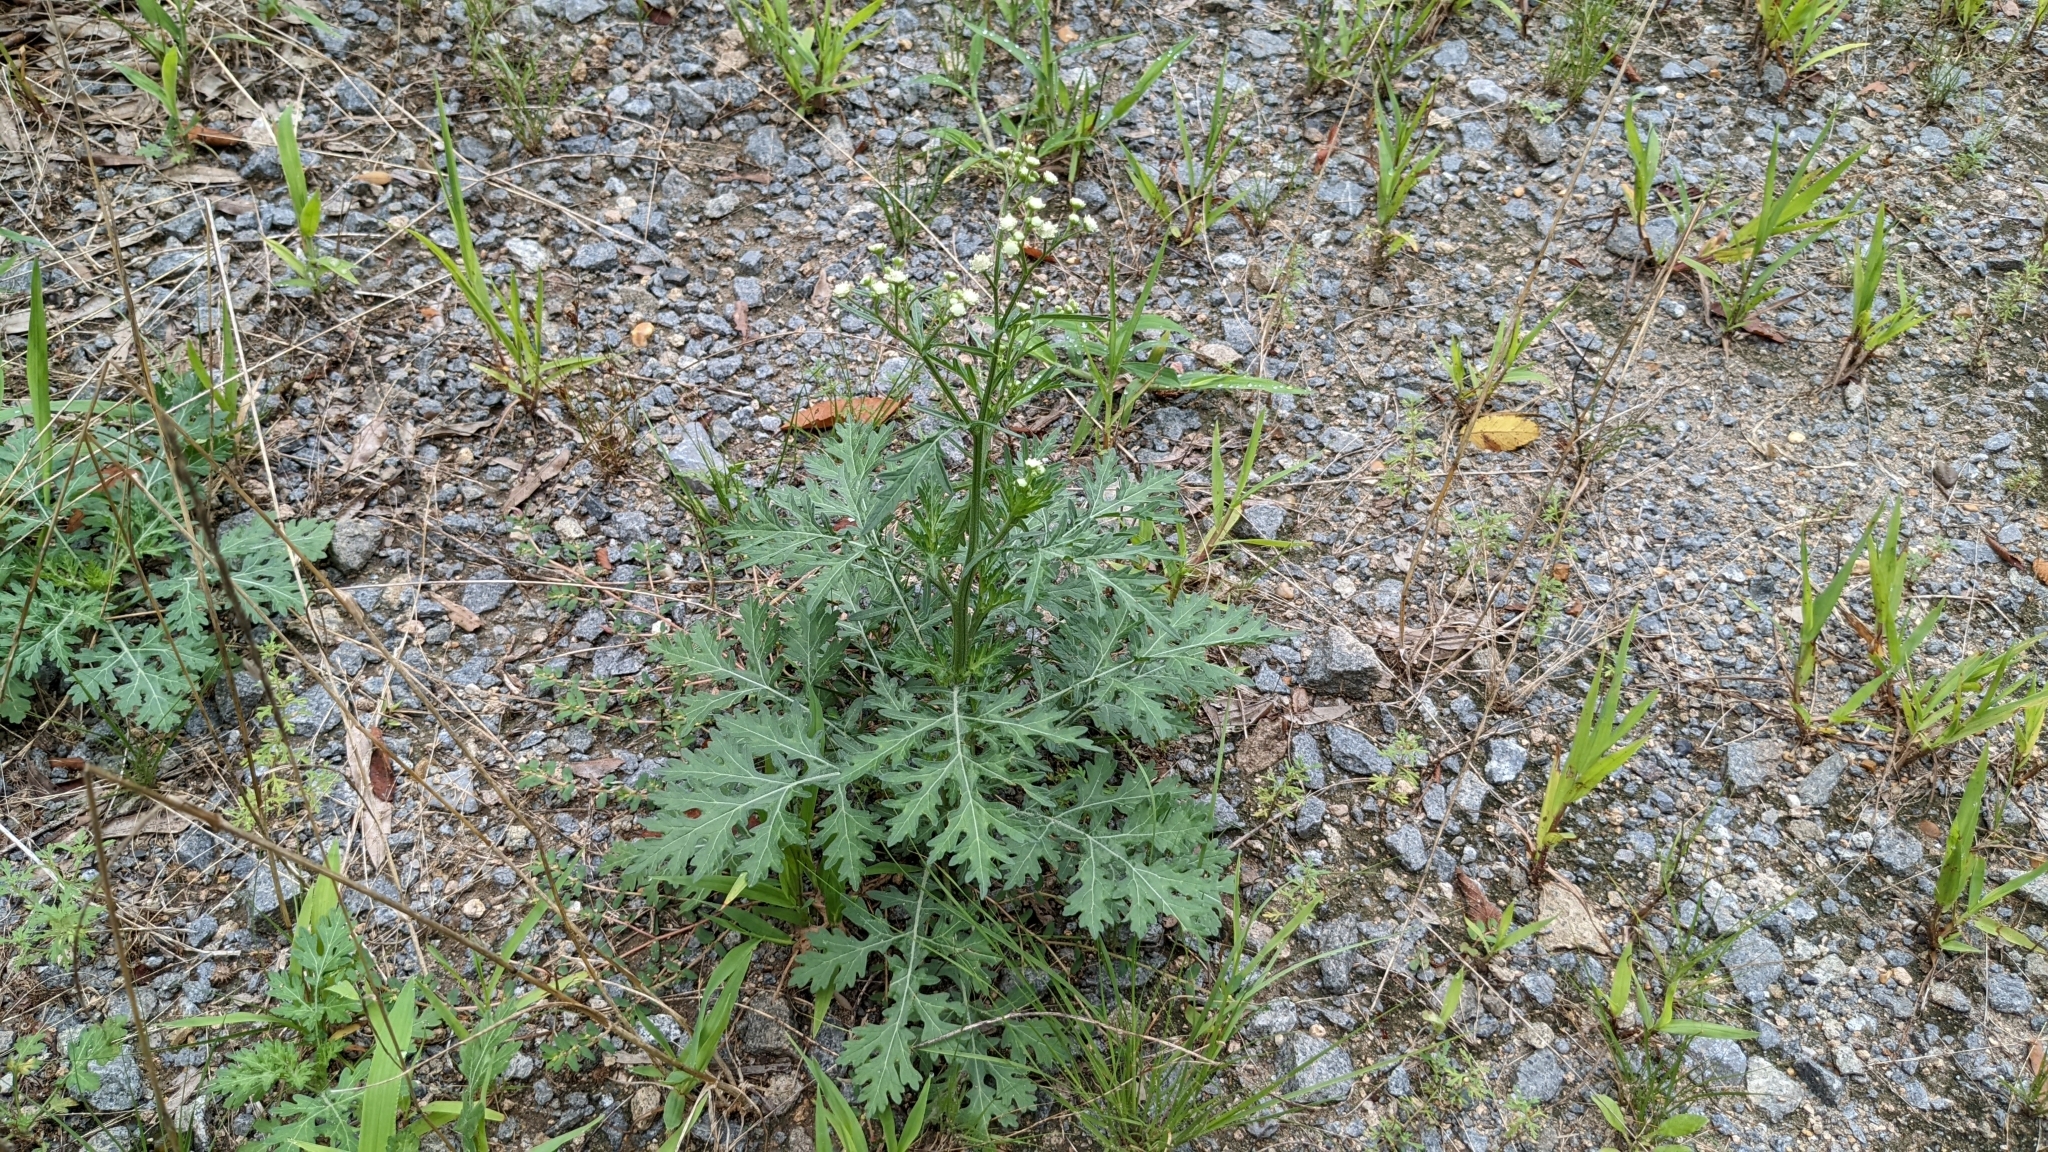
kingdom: Plantae
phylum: Tracheophyta
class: Magnoliopsida
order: Asterales
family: Asteraceae
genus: Parthenium
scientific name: Parthenium hysterophorus
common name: Santa maria feverfew
